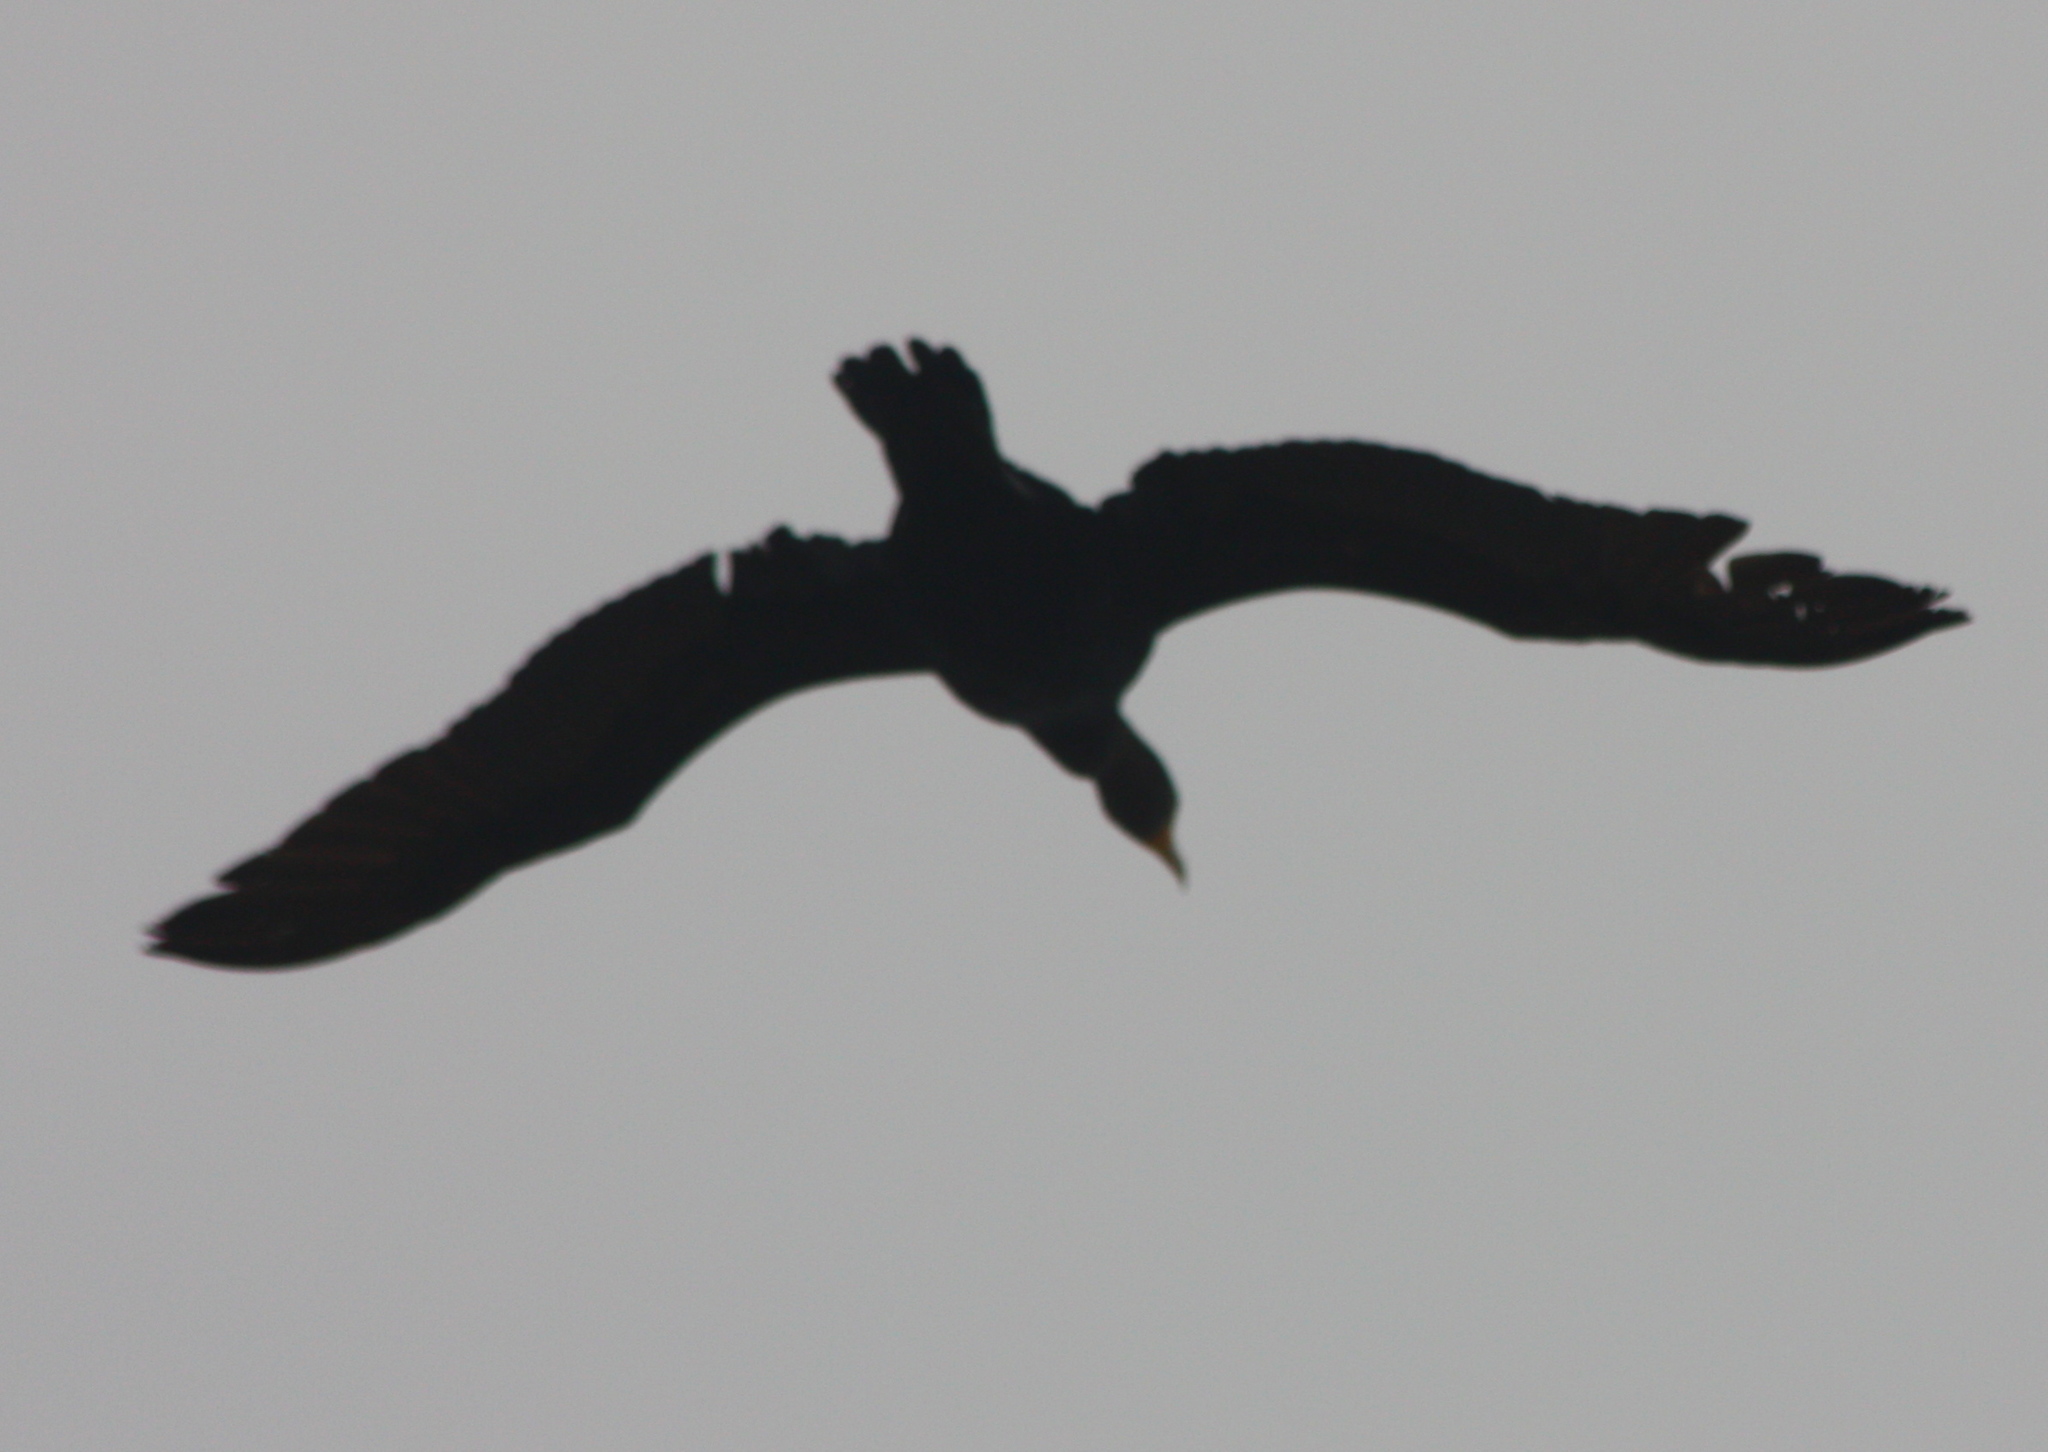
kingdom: Animalia
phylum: Chordata
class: Aves
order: Suliformes
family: Phalacrocoracidae
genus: Phalacrocorax
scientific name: Phalacrocorax auritus
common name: Double-crested cormorant
